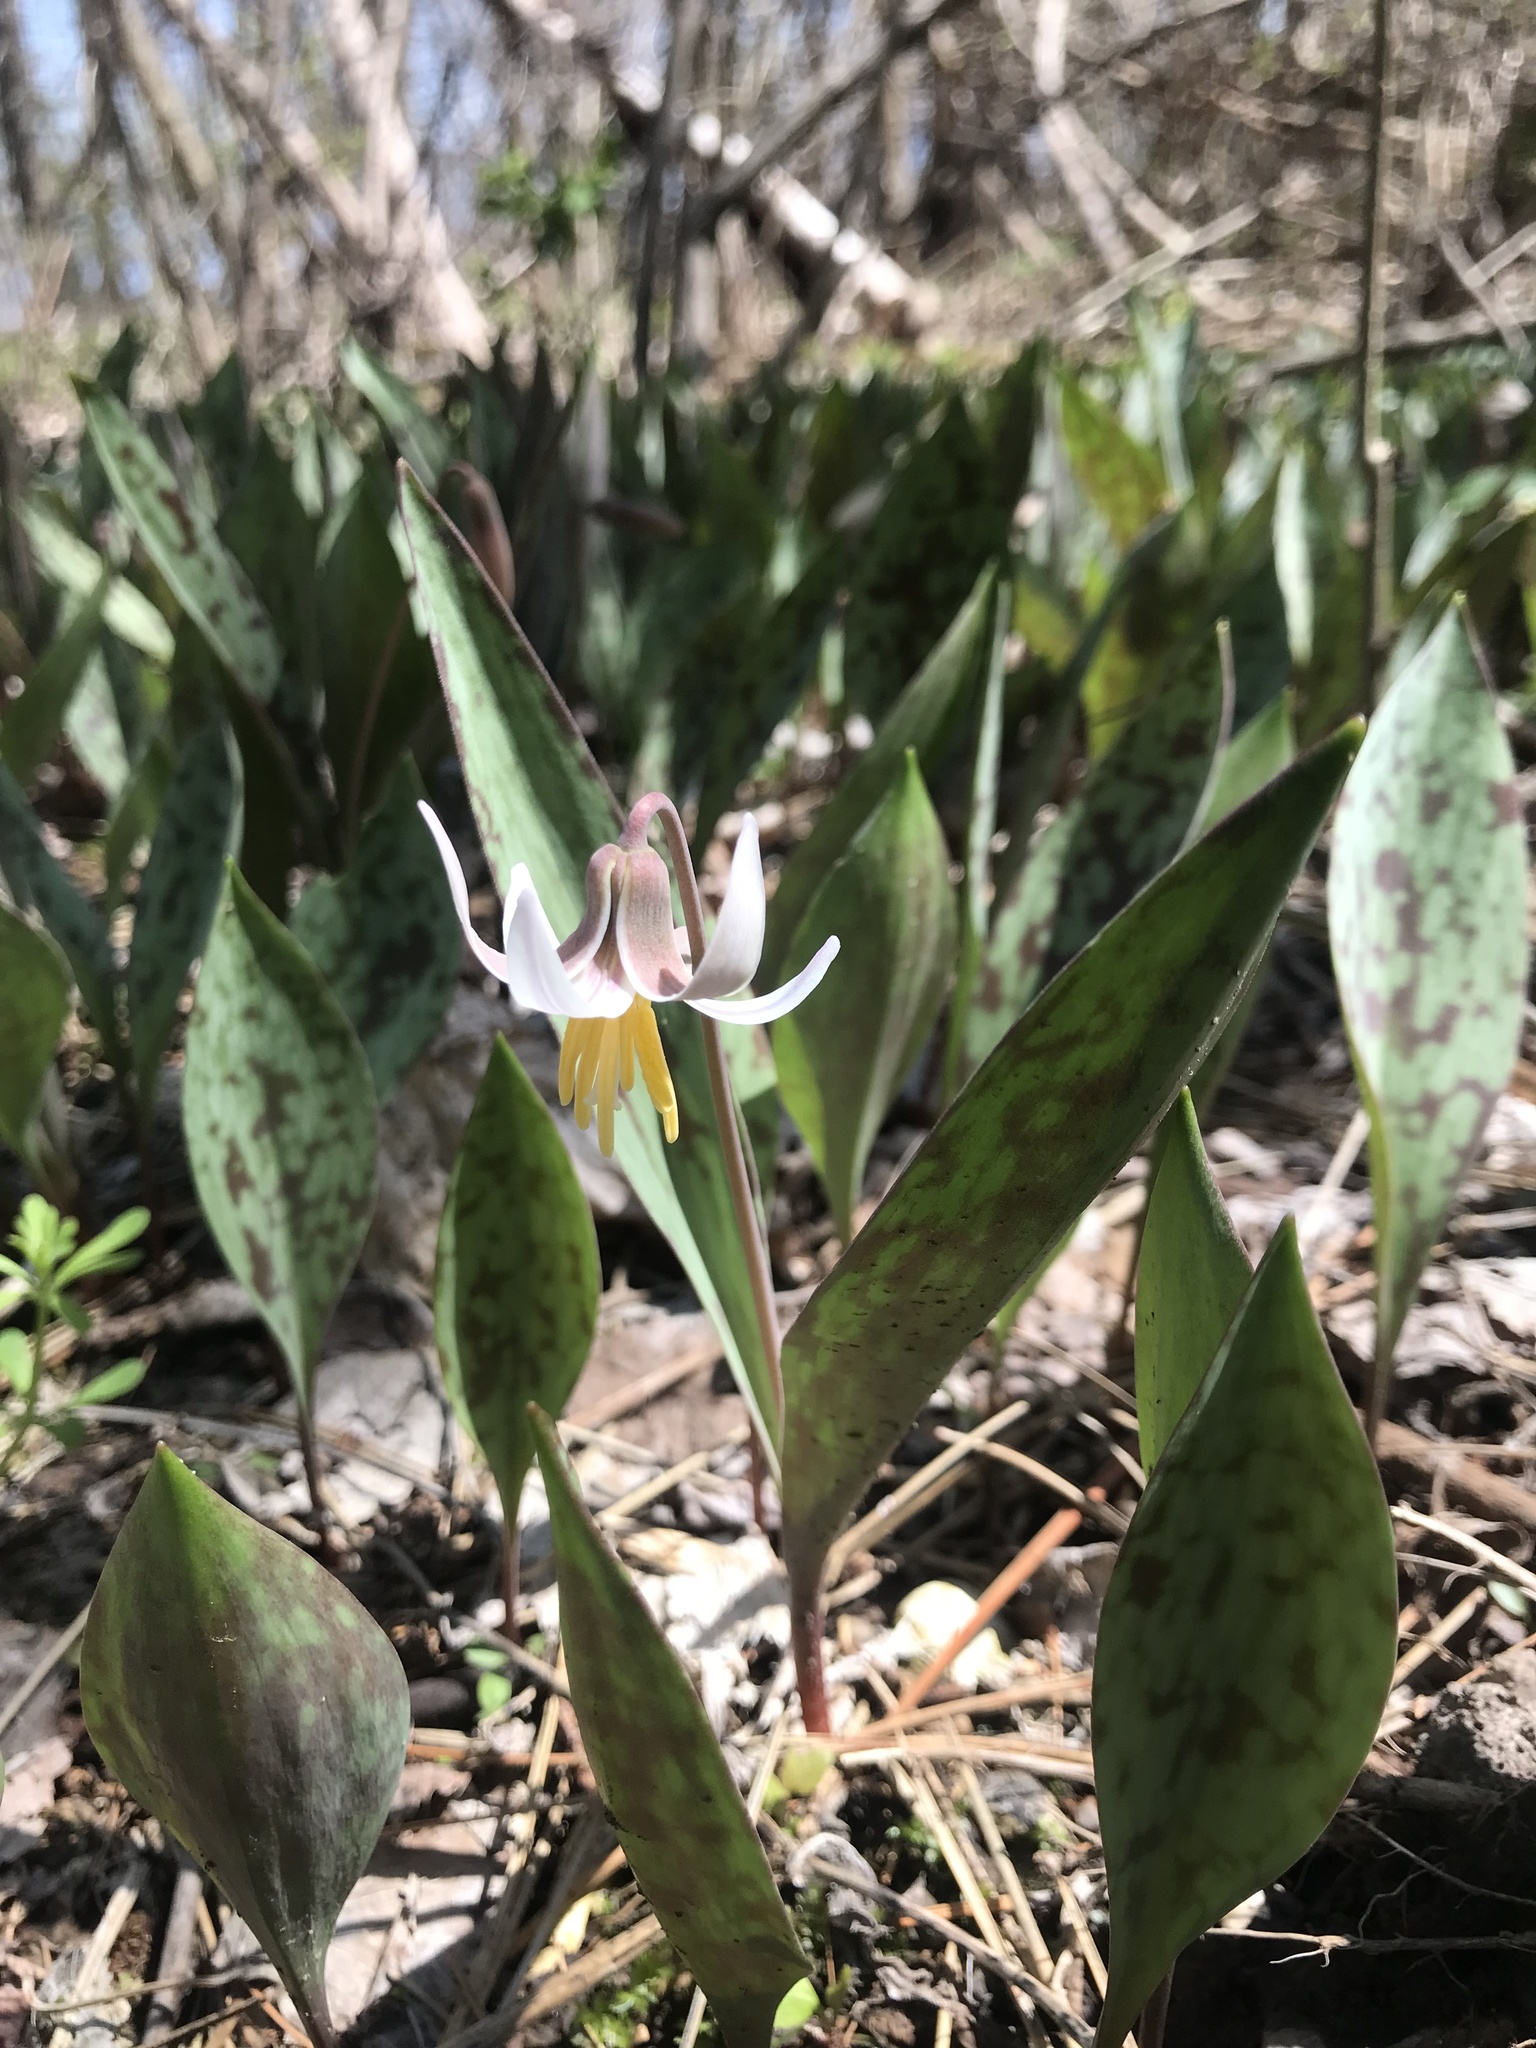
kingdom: Plantae
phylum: Tracheophyta
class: Liliopsida
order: Liliales
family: Liliaceae
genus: Erythronium
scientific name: Erythronium albidum
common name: White trout-lily
